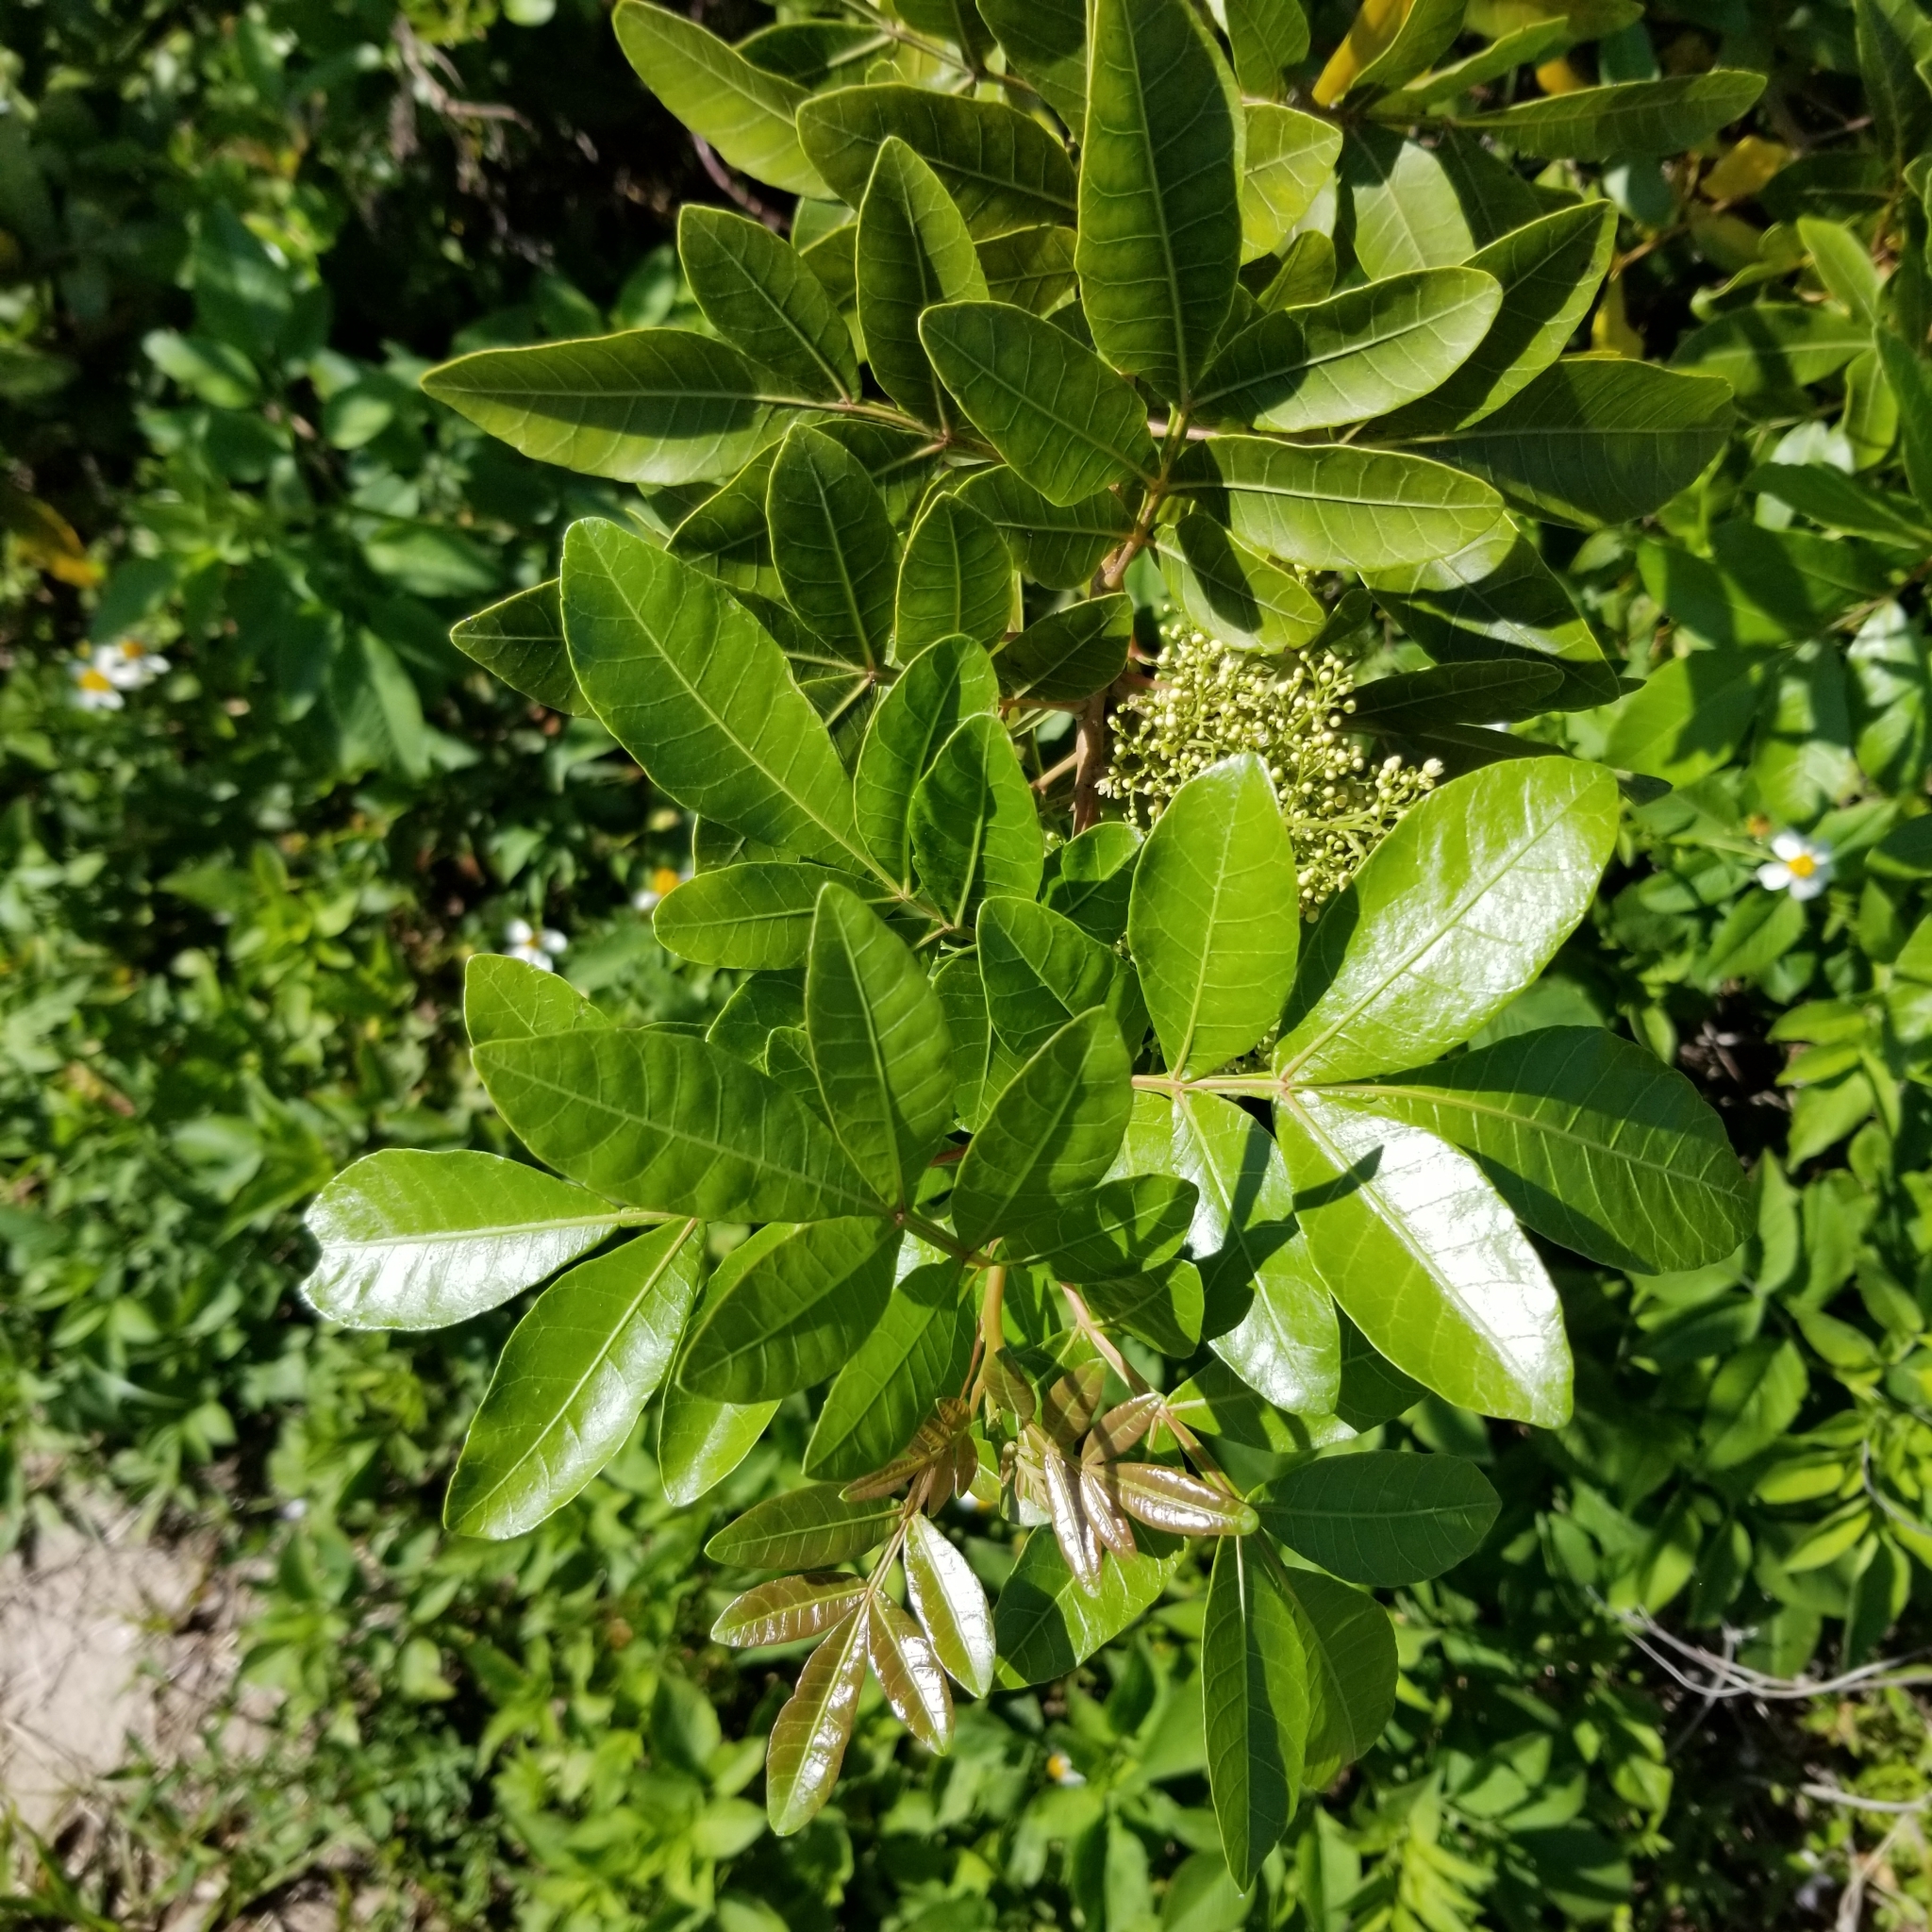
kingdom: Plantae
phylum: Tracheophyta
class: Magnoliopsida
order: Sapindales
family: Anacardiaceae
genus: Schinus
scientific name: Schinus terebinthifolia
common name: Brazilian peppertree
